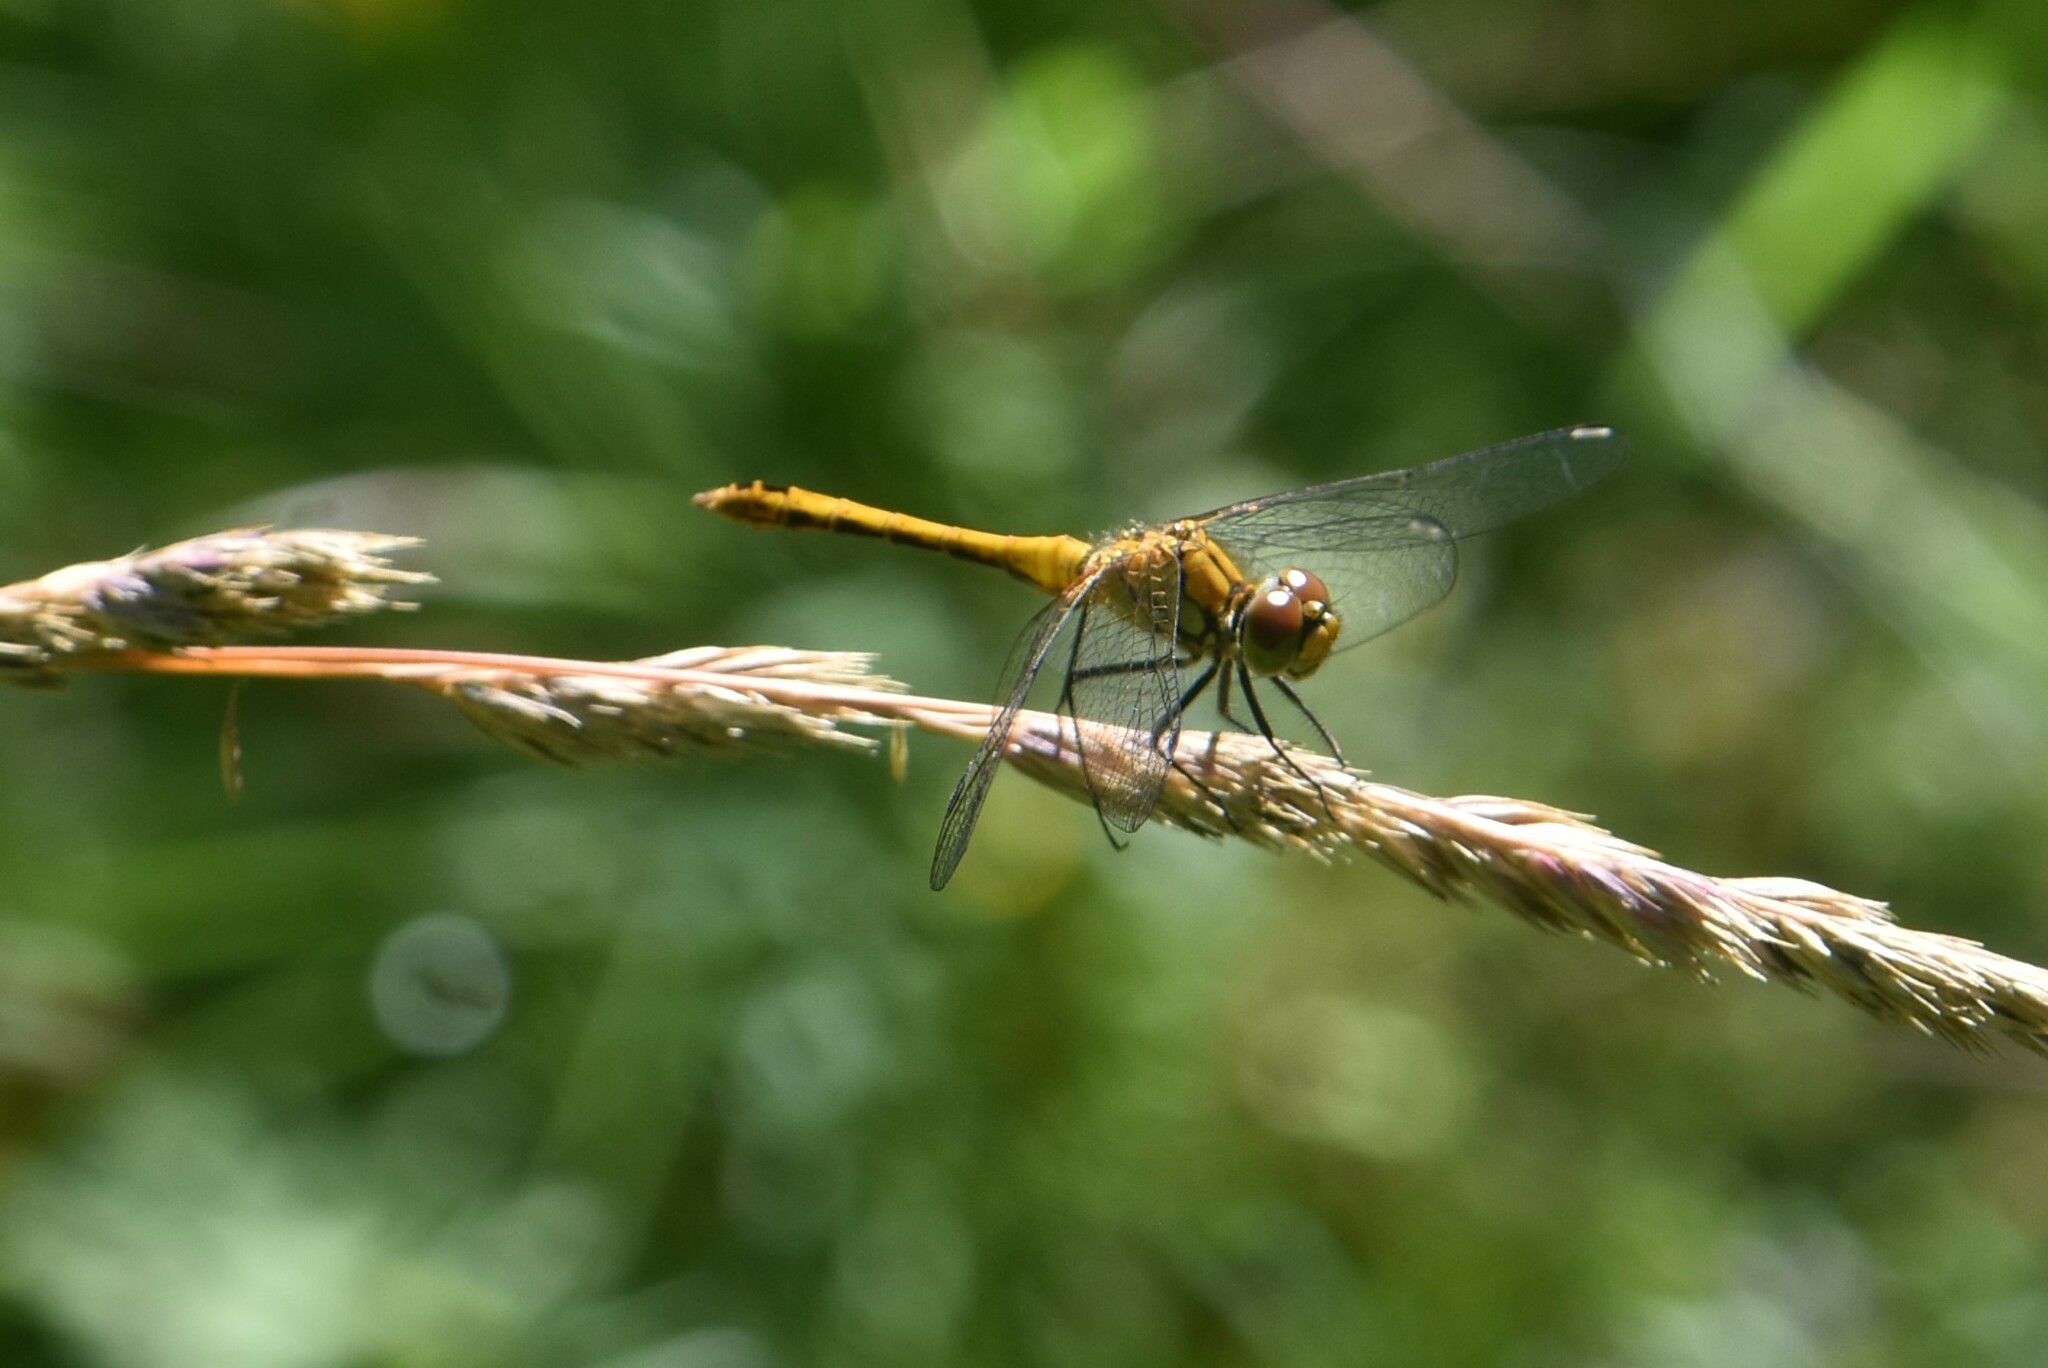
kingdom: Animalia
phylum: Arthropoda
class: Insecta
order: Odonata
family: Libellulidae
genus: Sympetrum
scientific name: Sympetrum sanguineum
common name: Ruddy darter
